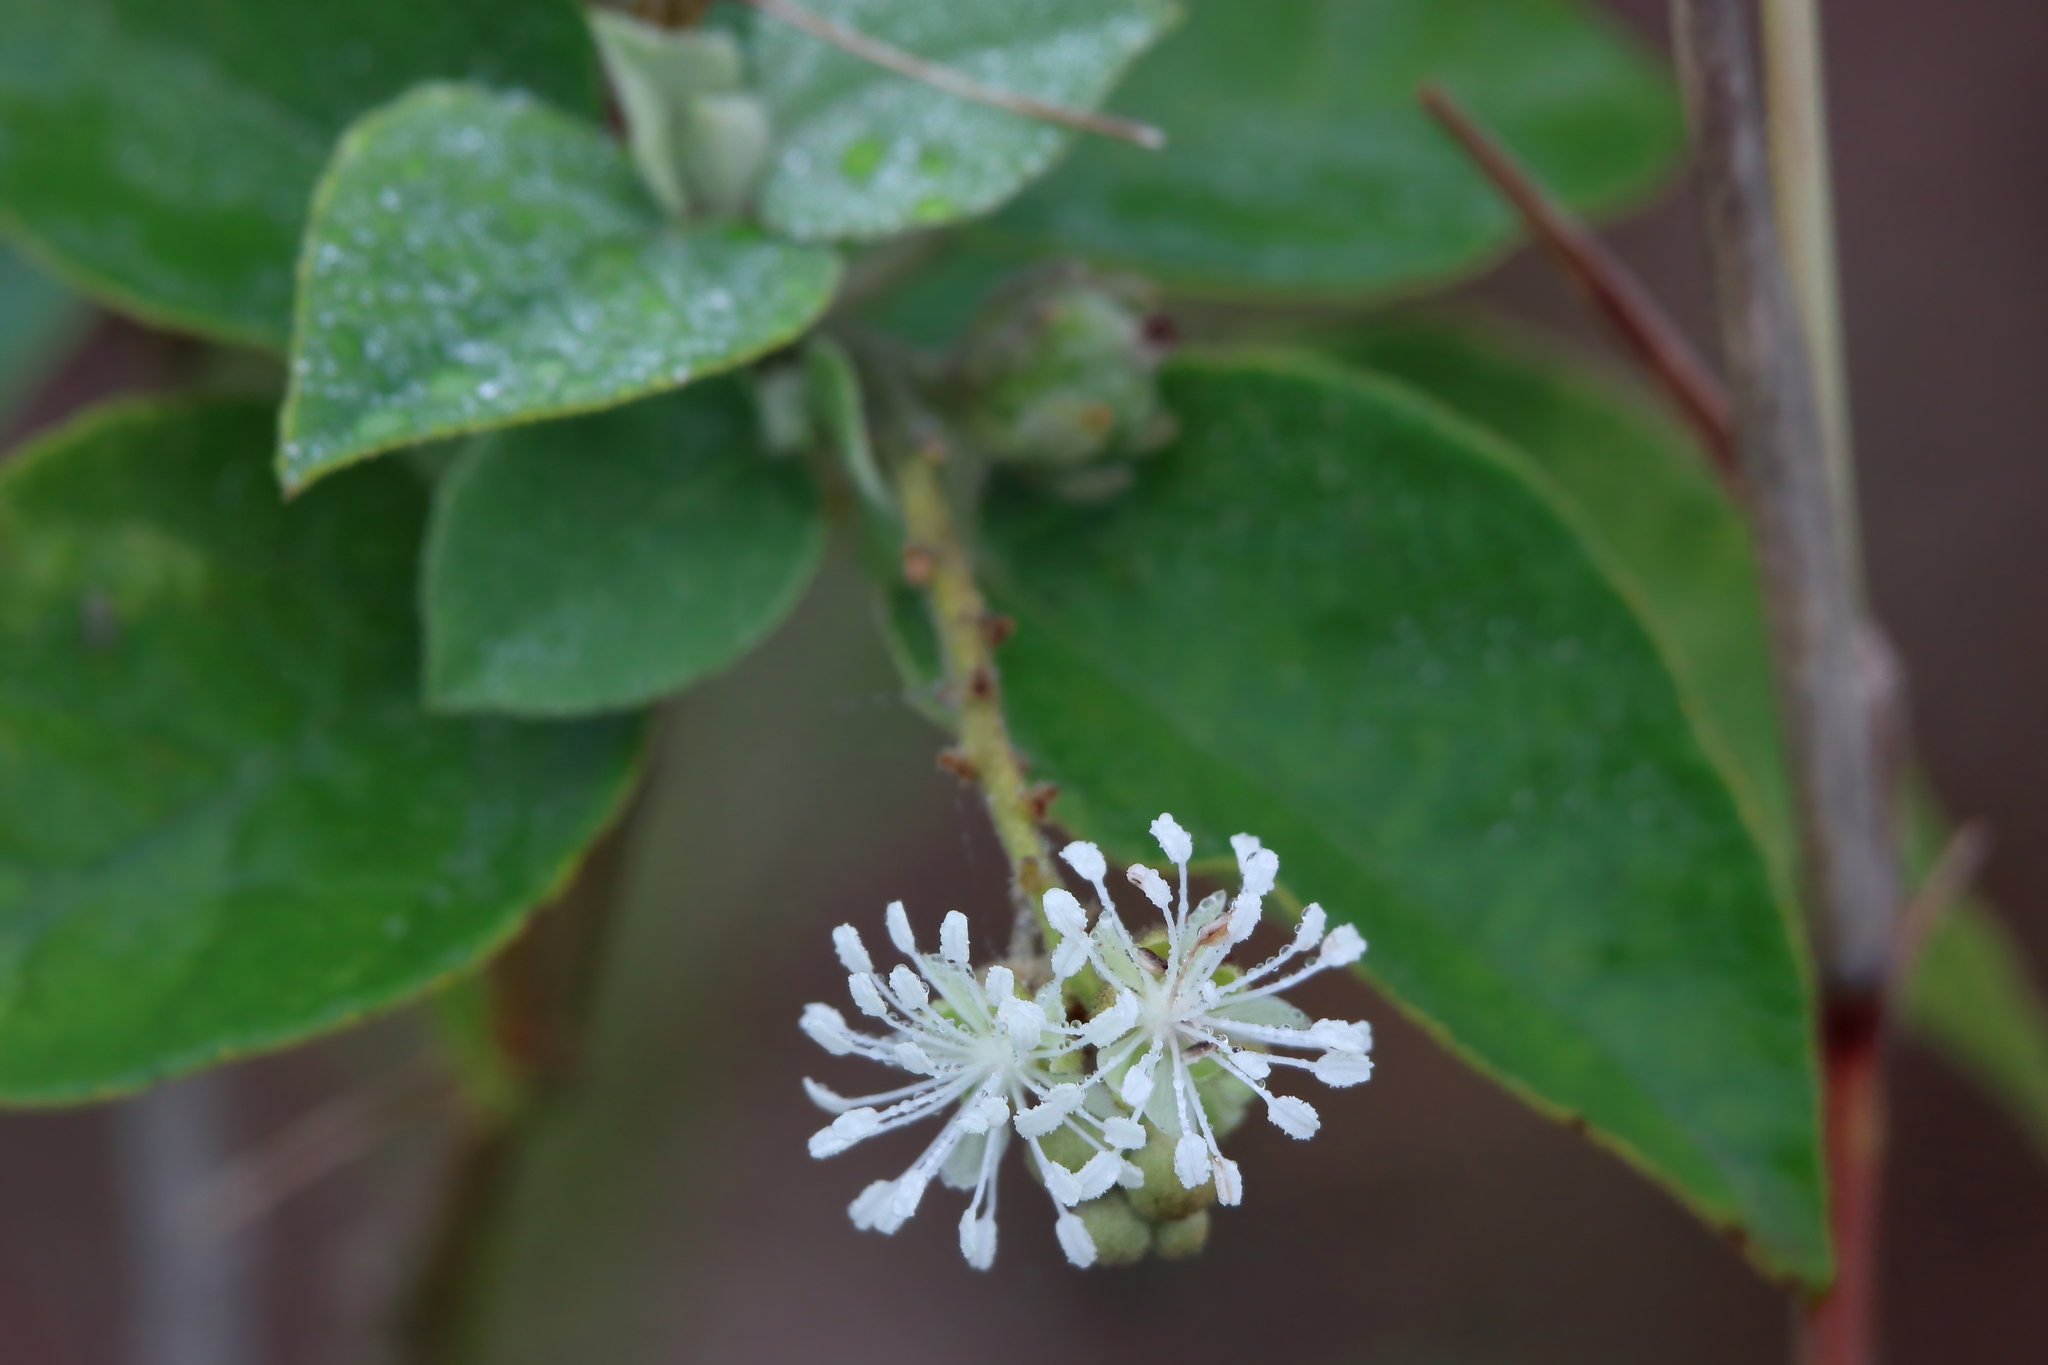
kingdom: Plantae
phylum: Tracheophyta
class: Magnoliopsida
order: Malpighiales
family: Euphorbiaceae
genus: Croton
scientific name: Croton humilis
